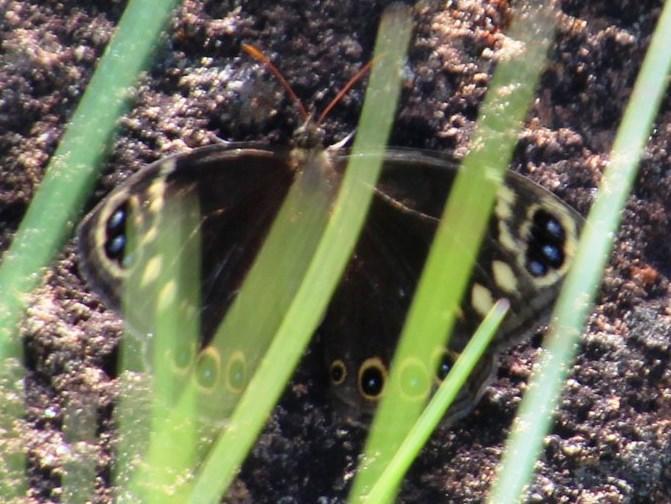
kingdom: Animalia
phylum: Arthropoda
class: Insecta
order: Lepidoptera
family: Nymphalidae
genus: Dira
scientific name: Dira oxylus
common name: Pondoland widow
